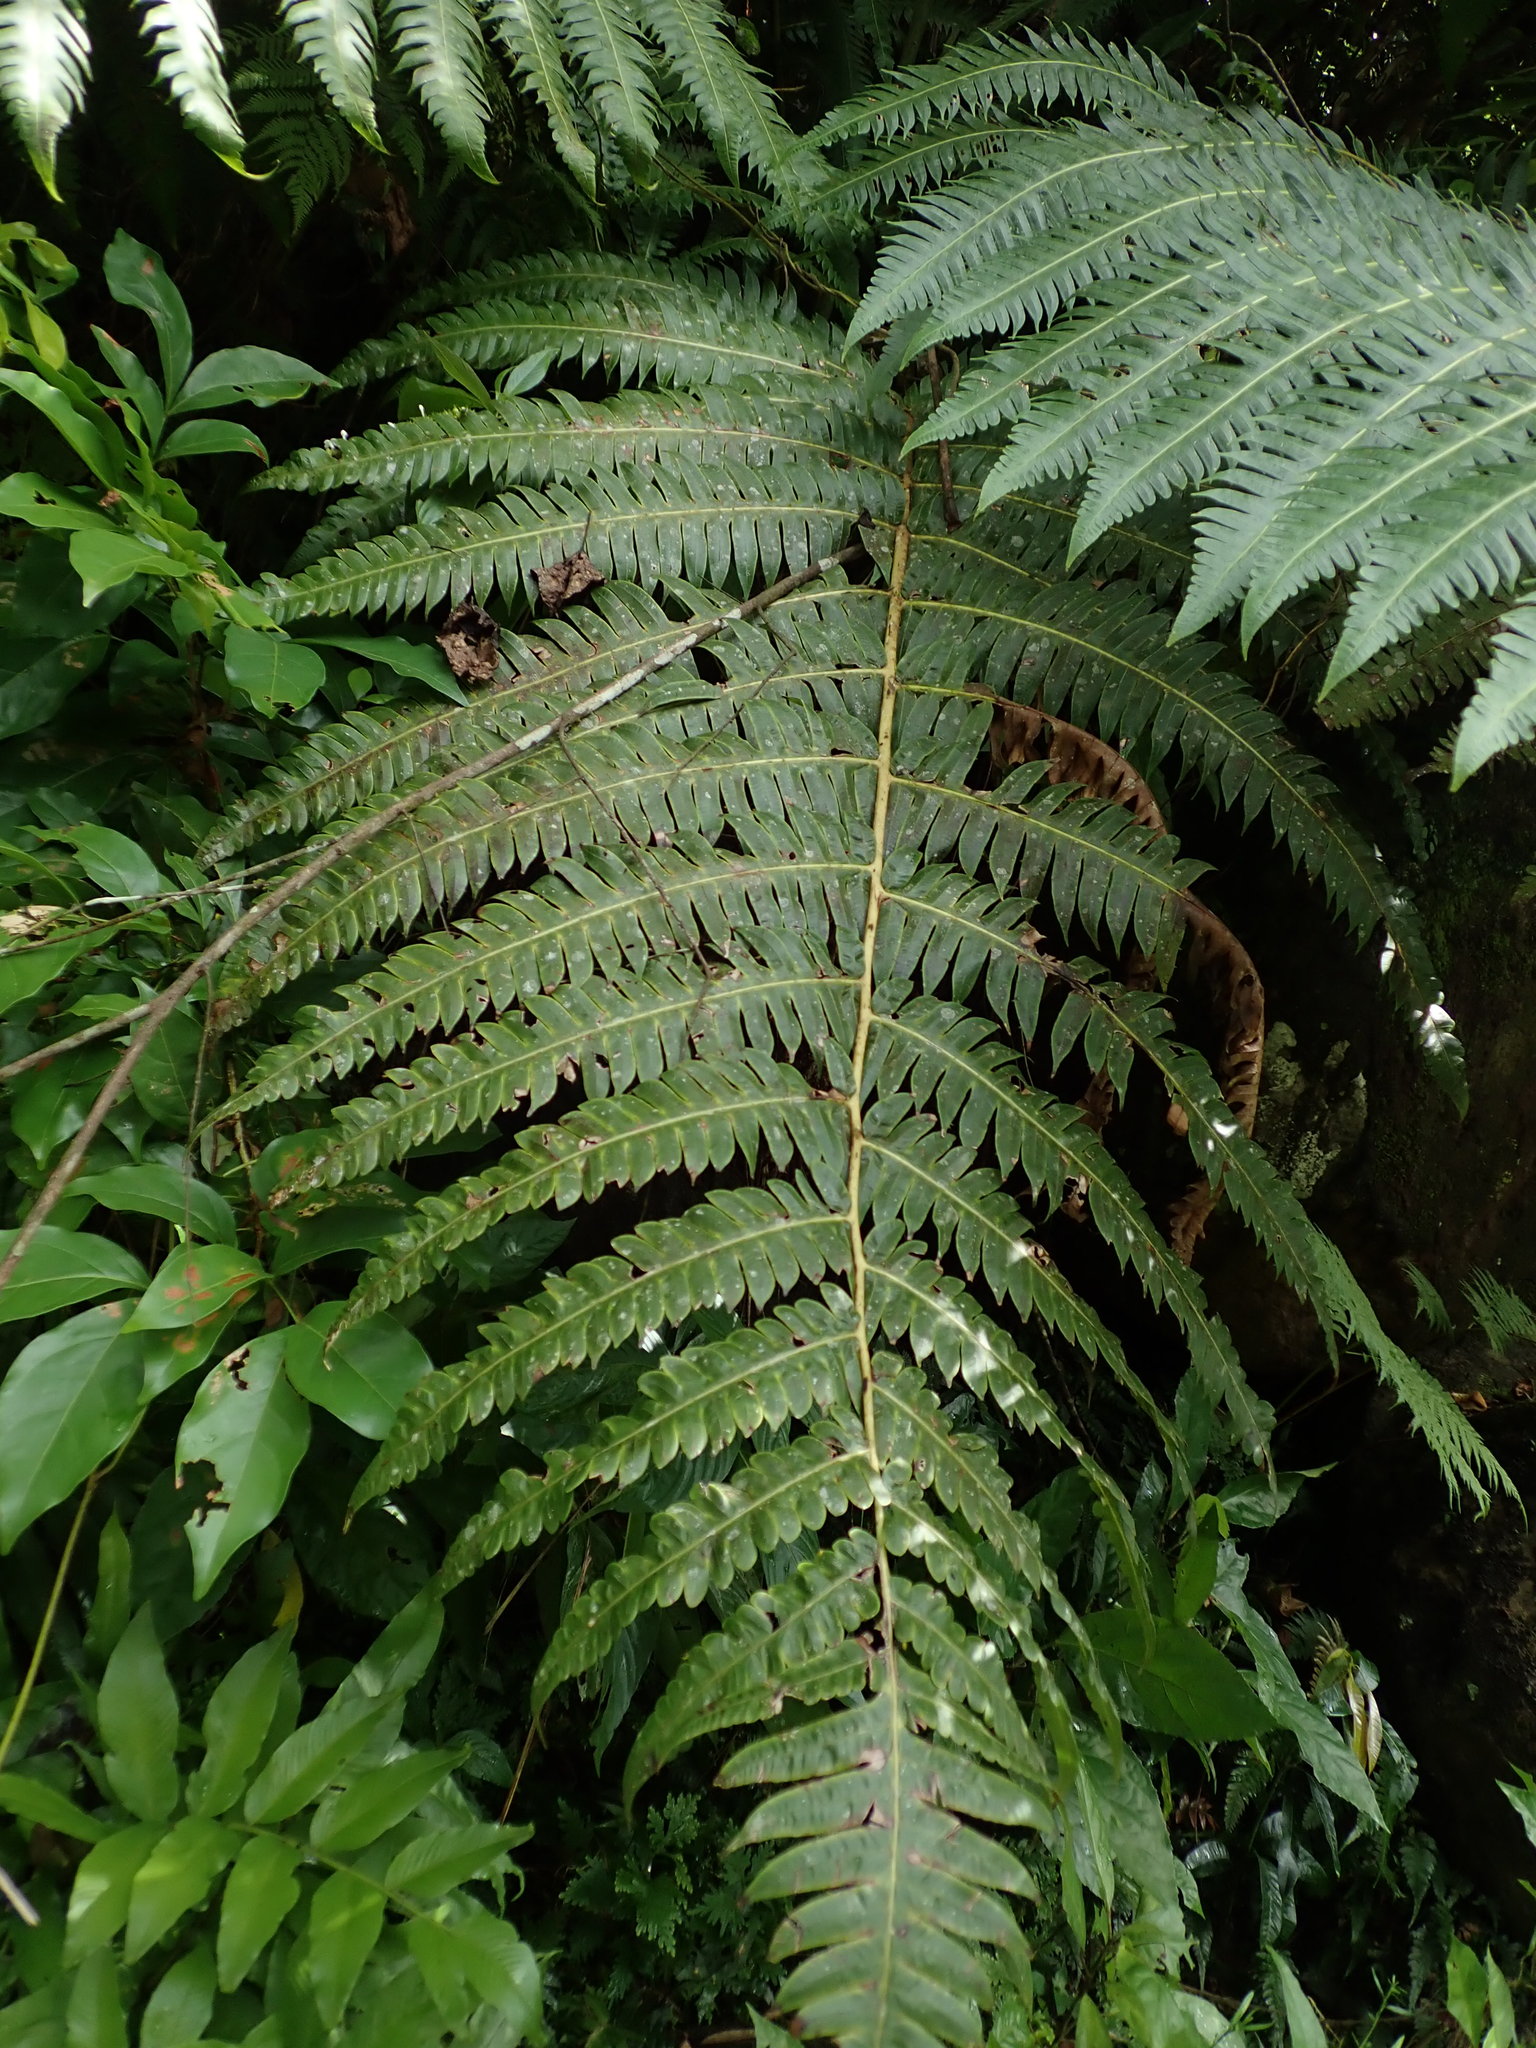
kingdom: Plantae
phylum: Tracheophyta
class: Polypodiopsida
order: Cyatheales
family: Cyatheaceae
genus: Cyathea
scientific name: Cyathea horrida
